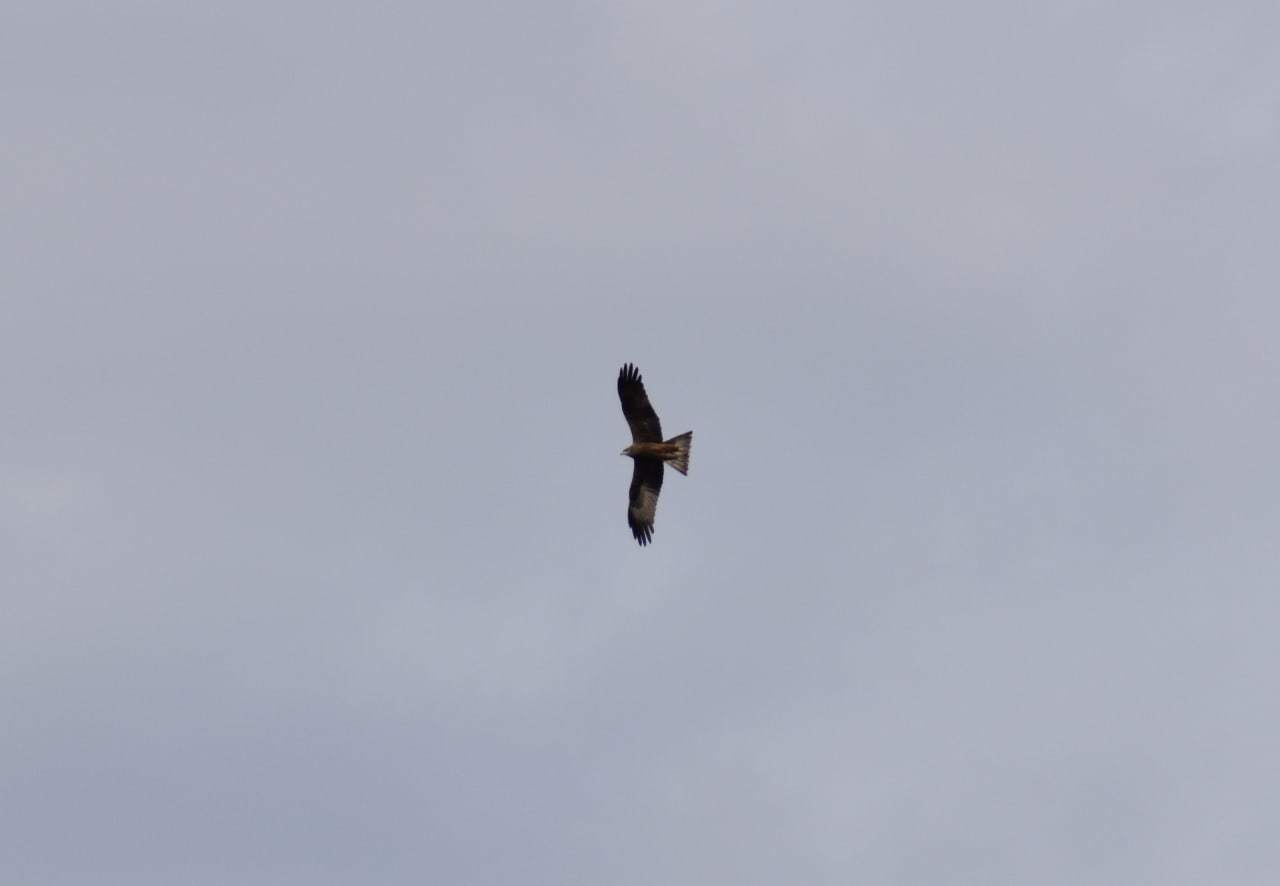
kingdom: Animalia
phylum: Chordata
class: Aves
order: Accipitriformes
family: Accipitridae
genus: Milvus
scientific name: Milvus migrans
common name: Black kite
